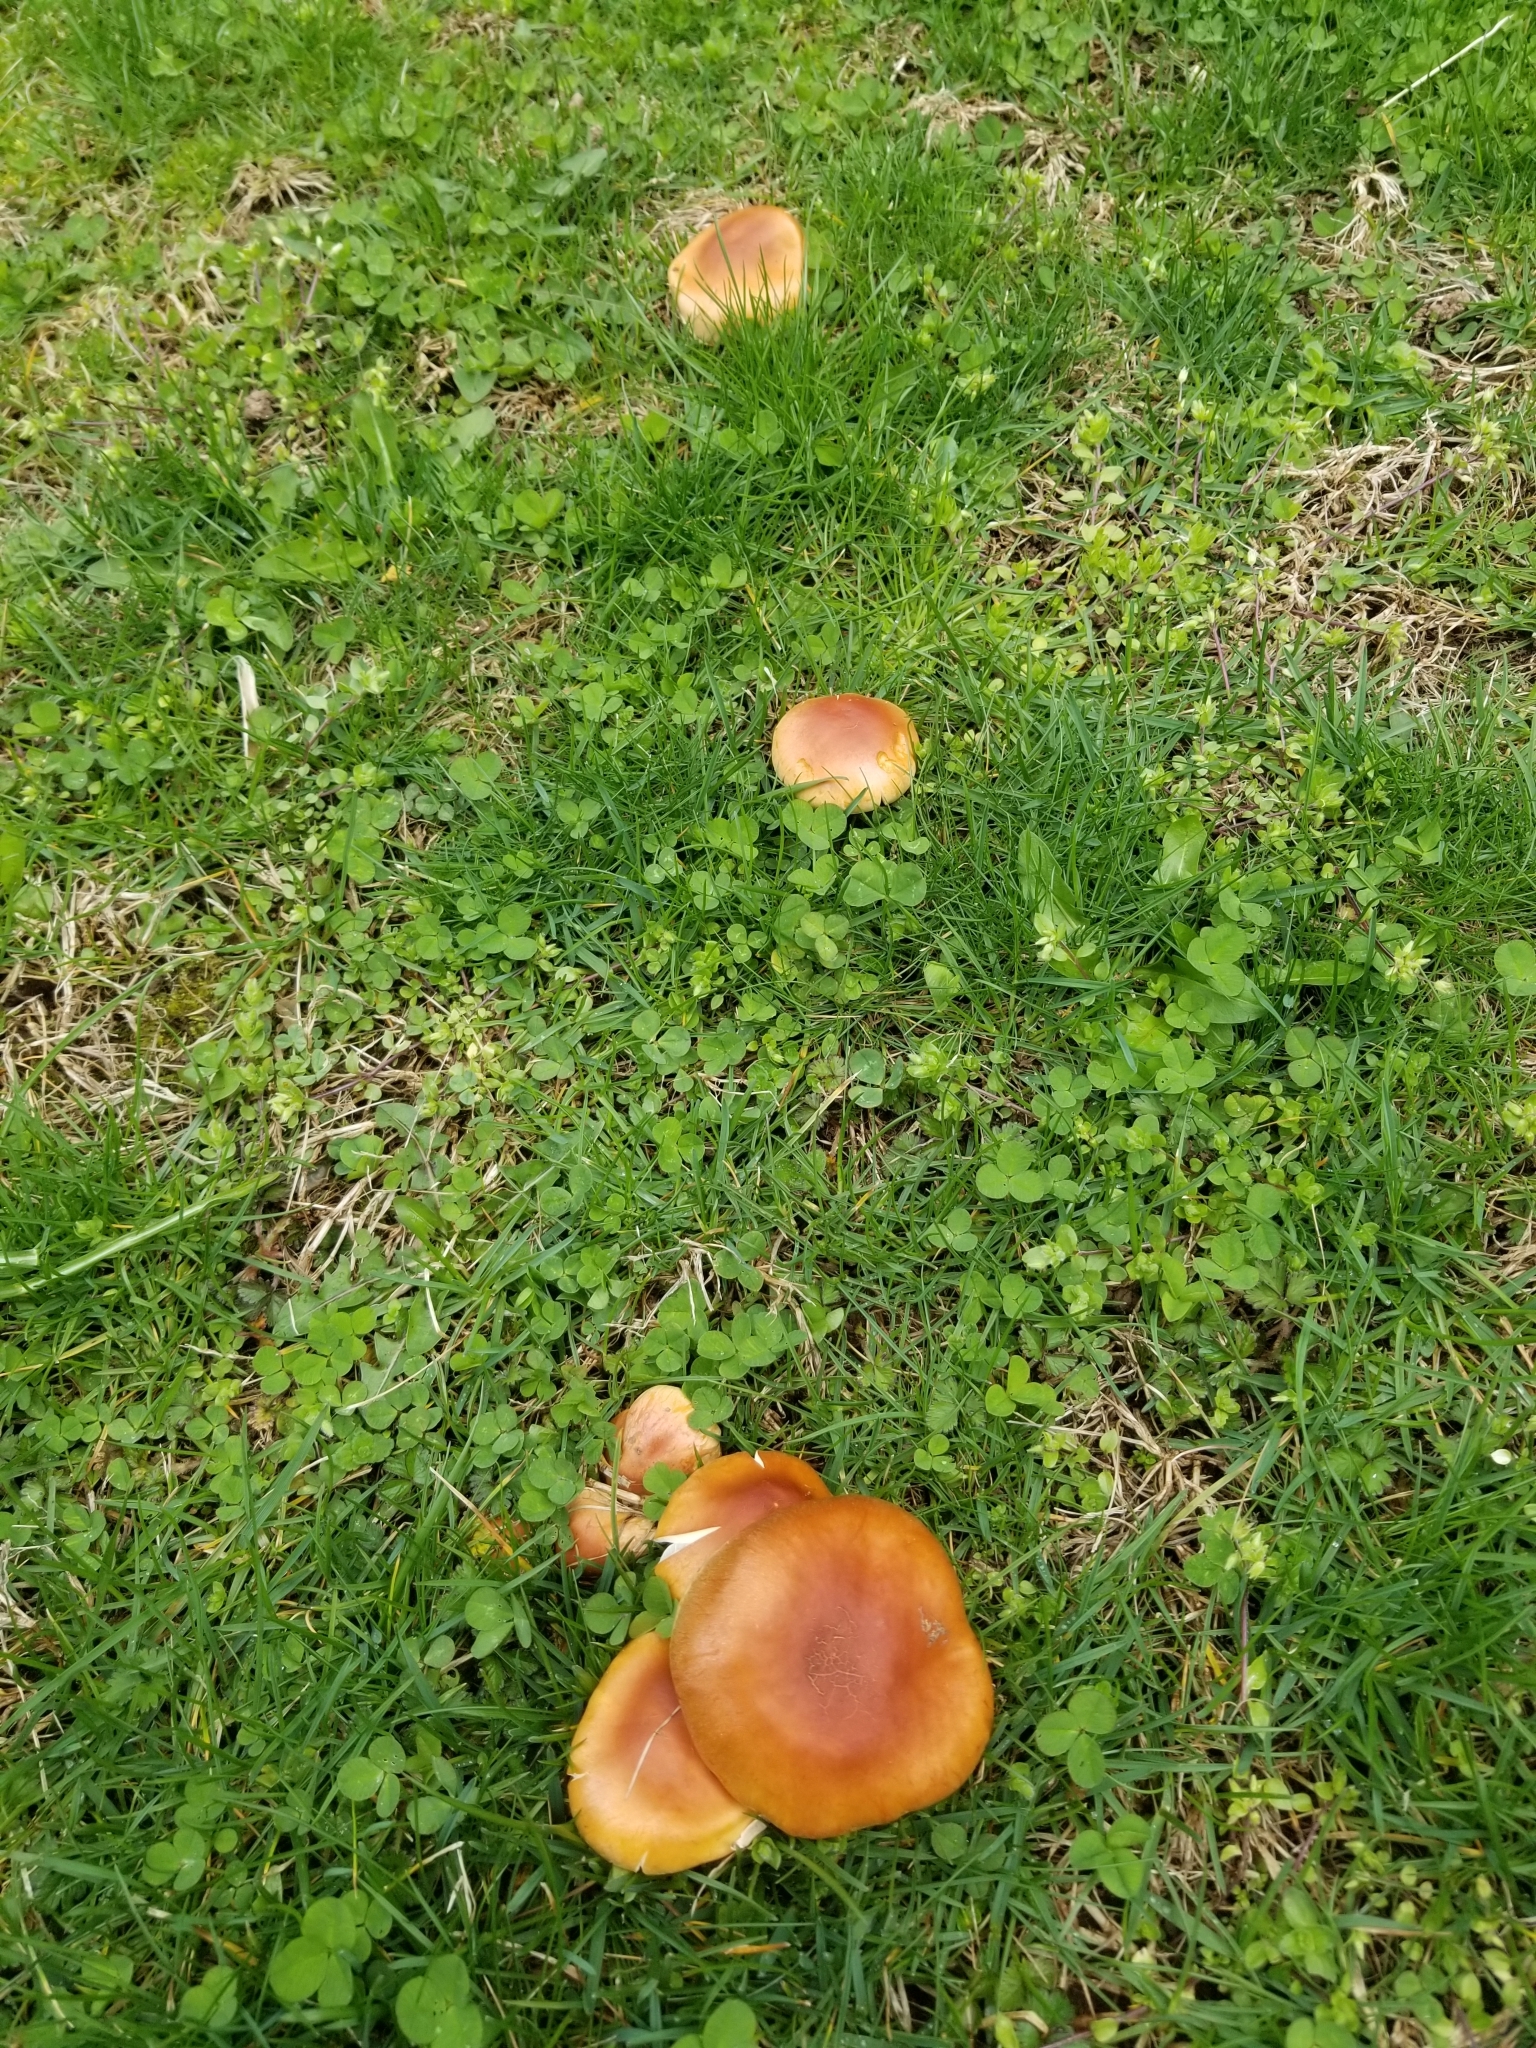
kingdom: Fungi
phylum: Basidiomycota
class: Agaricomycetes
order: Agaricales
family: Strophariaceae
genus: Hypholoma
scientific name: Hypholoma lateritium
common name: Brick caps
